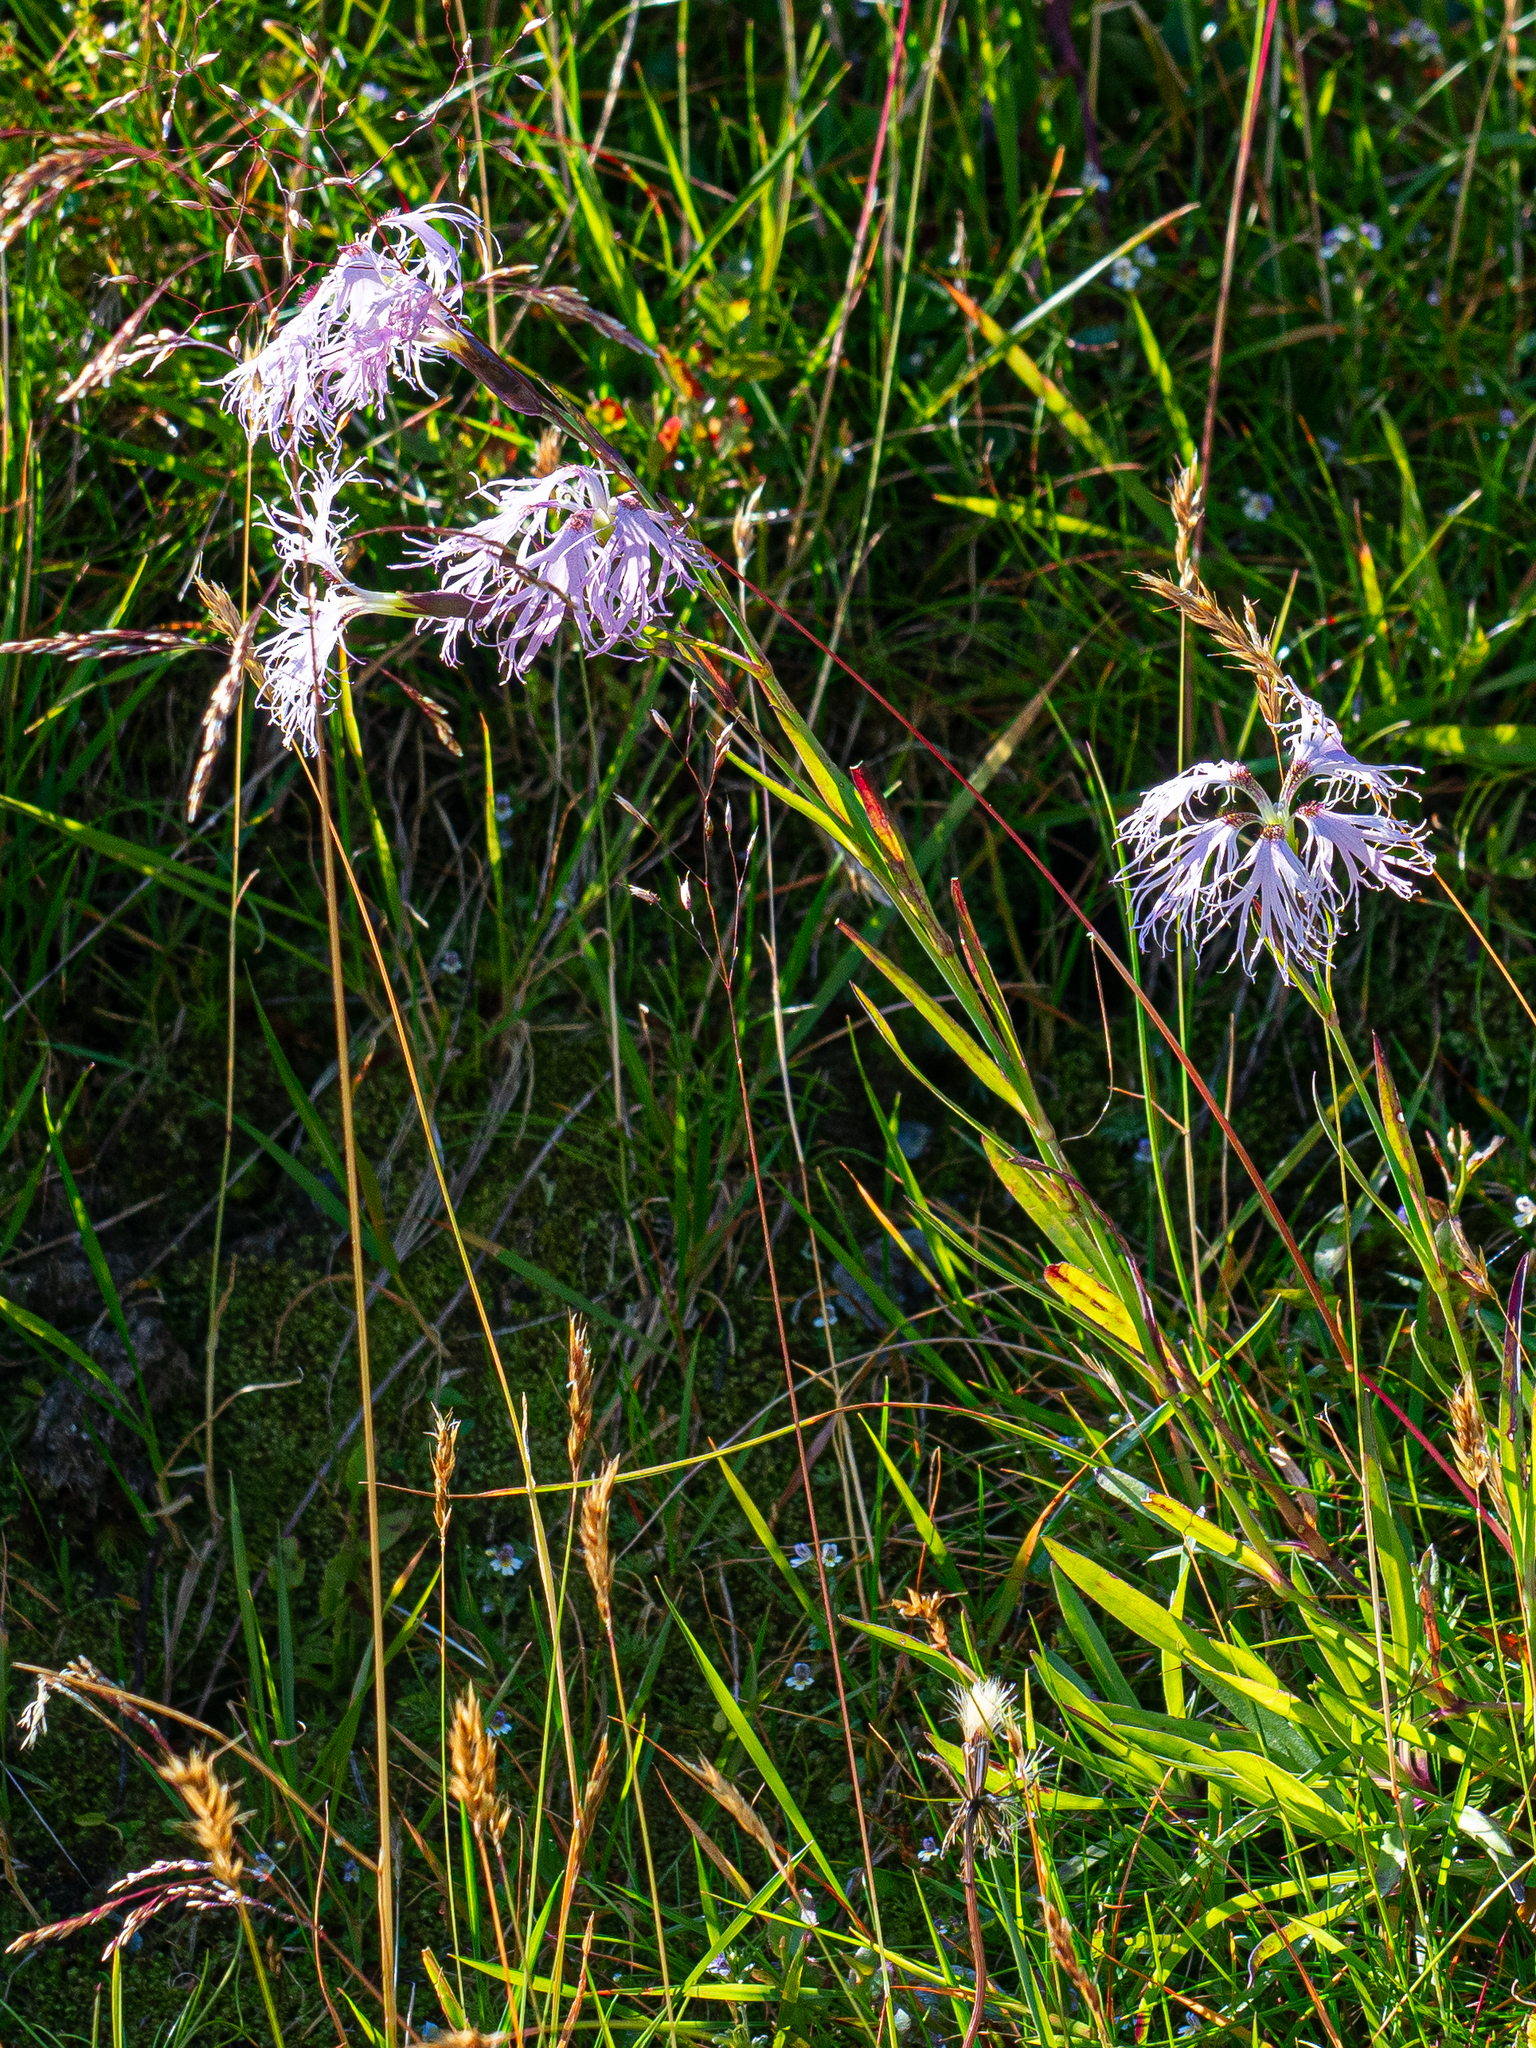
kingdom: Plantae
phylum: Tracheophyta
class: Magnoliopsida
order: Caryophyllales
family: Caryophyllaceae
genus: Dianthus
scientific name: Dianthus superbus
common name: Fringed pink
